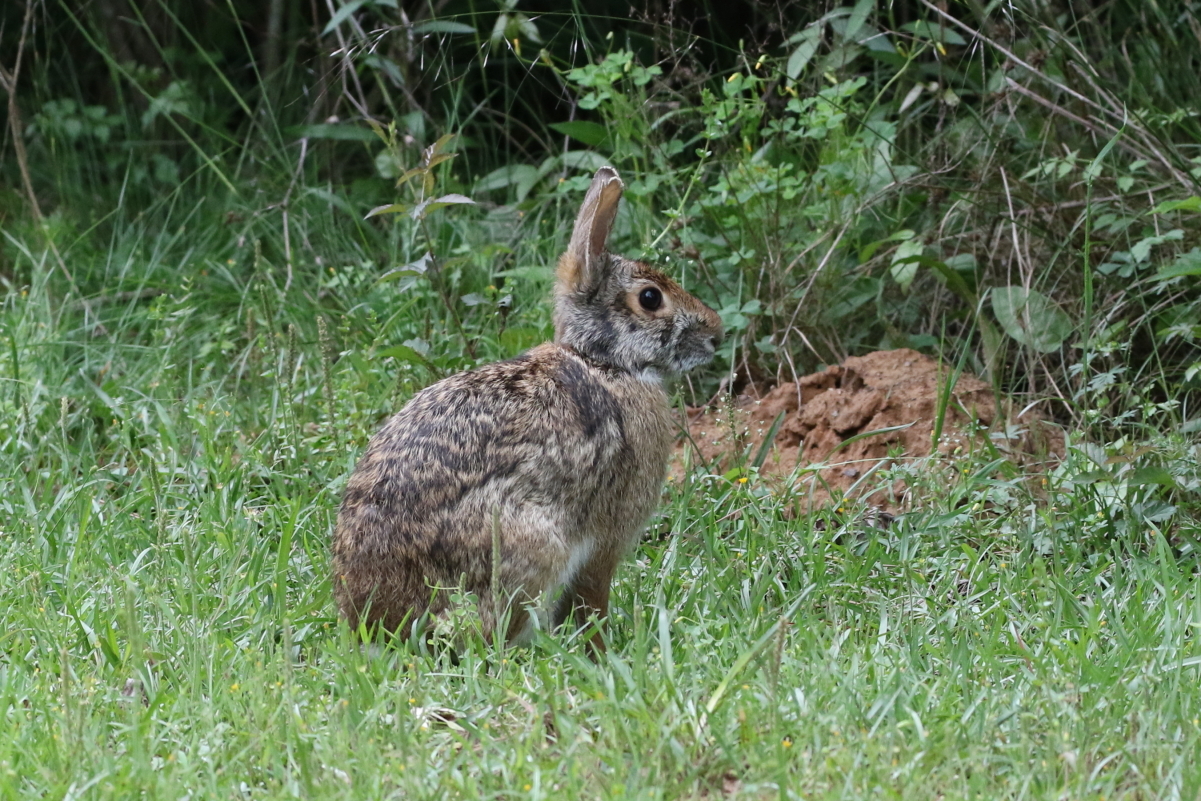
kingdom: Animalia
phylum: Chordata
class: Mammalia
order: Lagomorpha
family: Leporidae
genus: Sylvilagus
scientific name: Sylvilagus aquaticus
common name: Swamp rabbit
